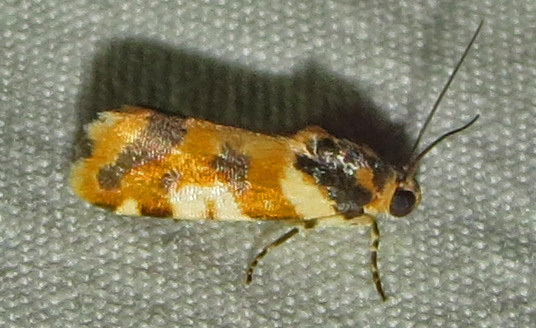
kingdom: Animalia
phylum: Arthropoda
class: Insecta
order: Lepidoptera
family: Noctuidae
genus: Acontia
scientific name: Acontia dama
